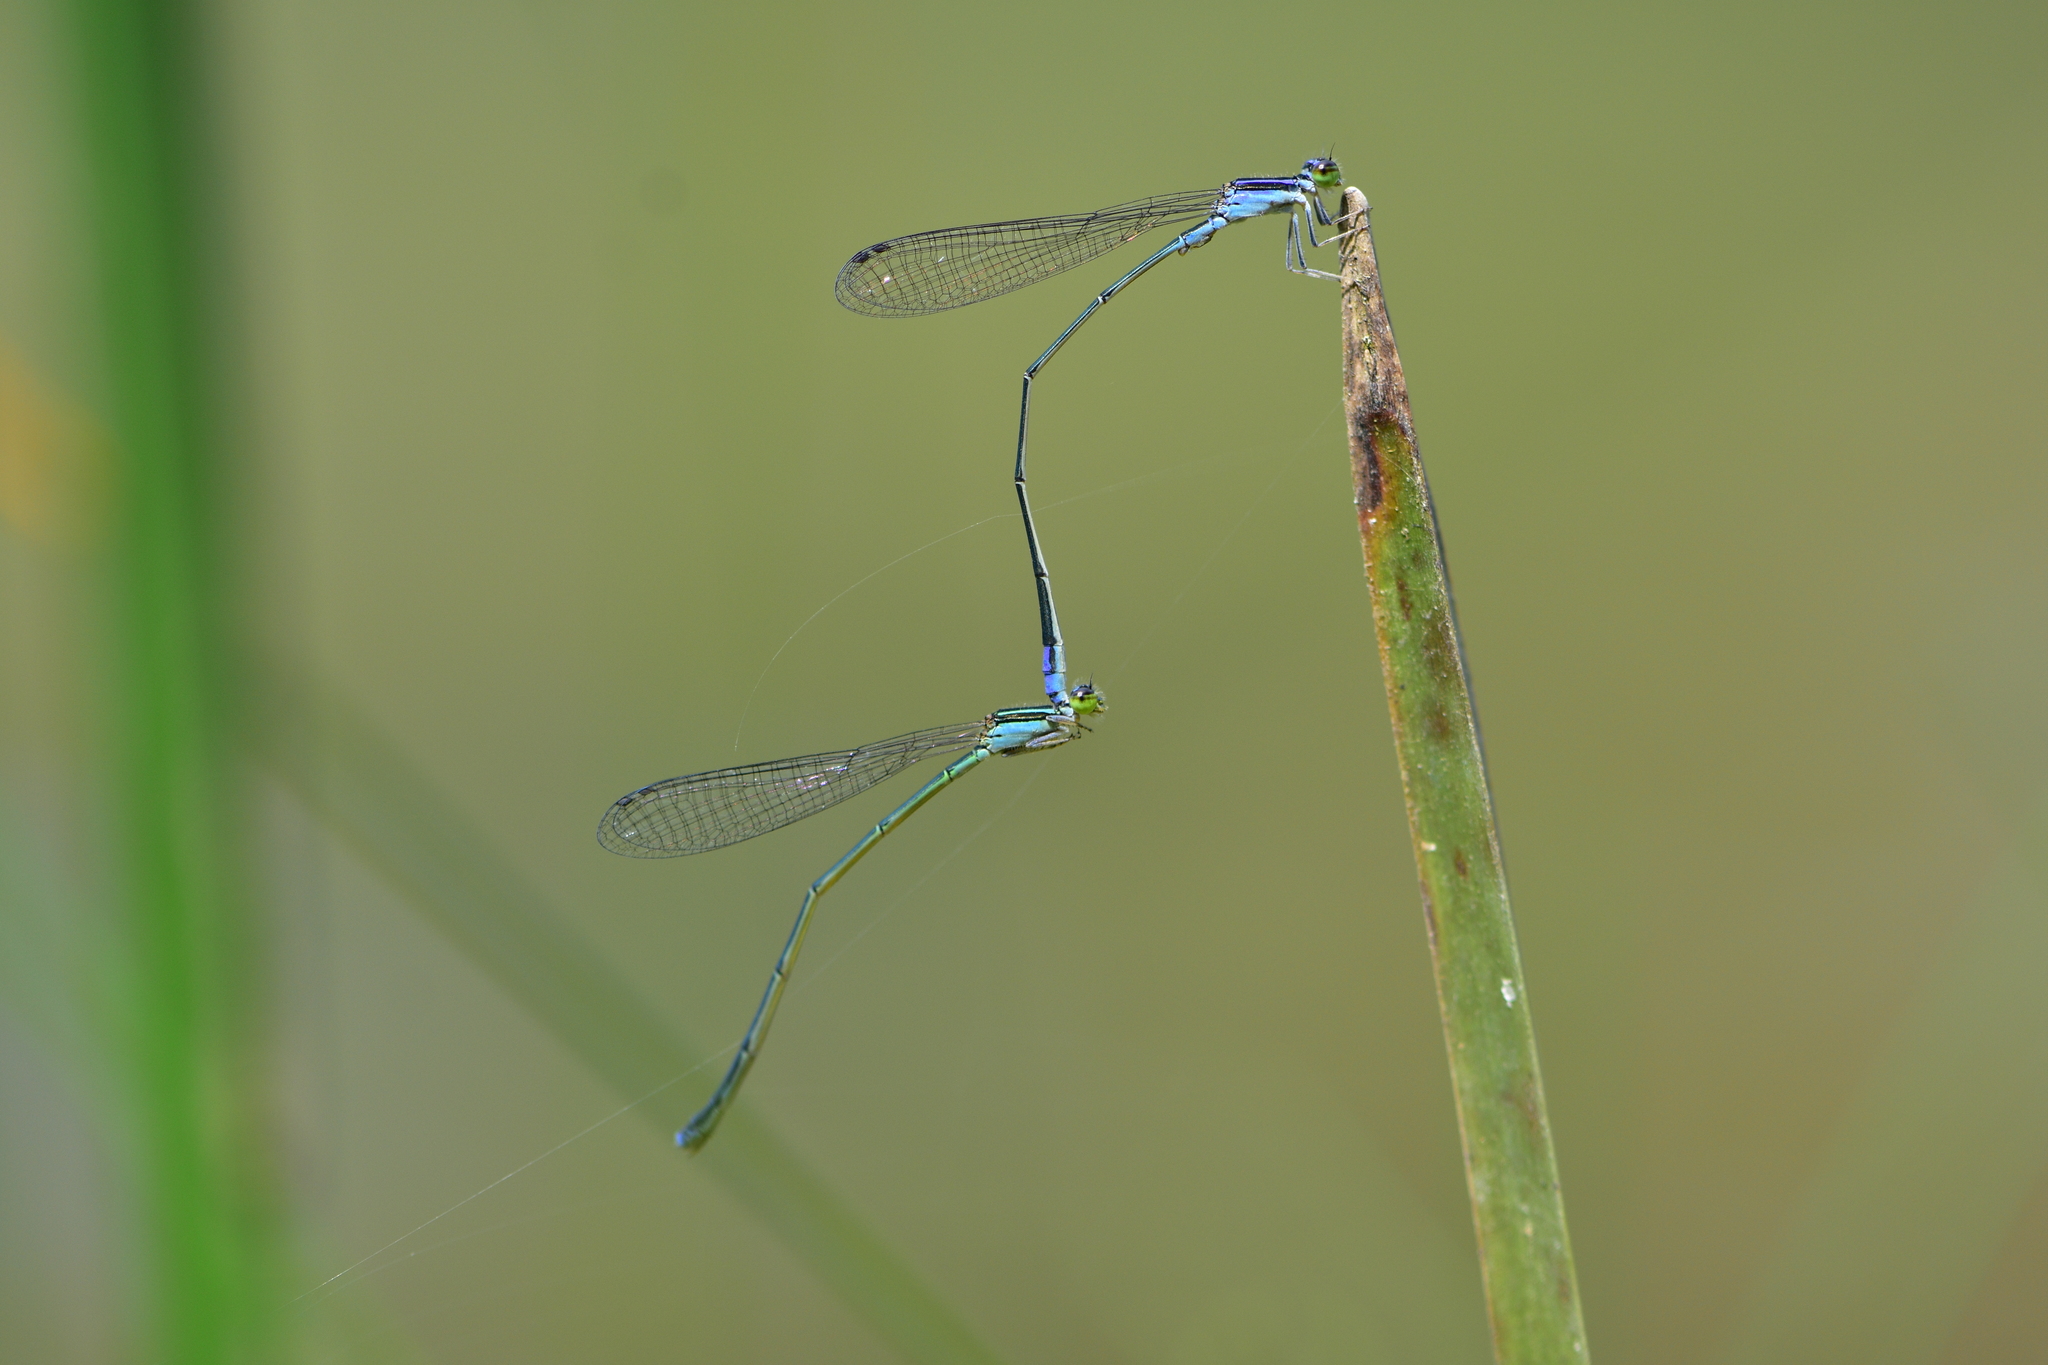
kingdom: Animalia
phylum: Arthropoda
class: Insecta
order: Odonata
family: Coenagrionidae
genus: Aciagrion
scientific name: Aciagrion approximans
